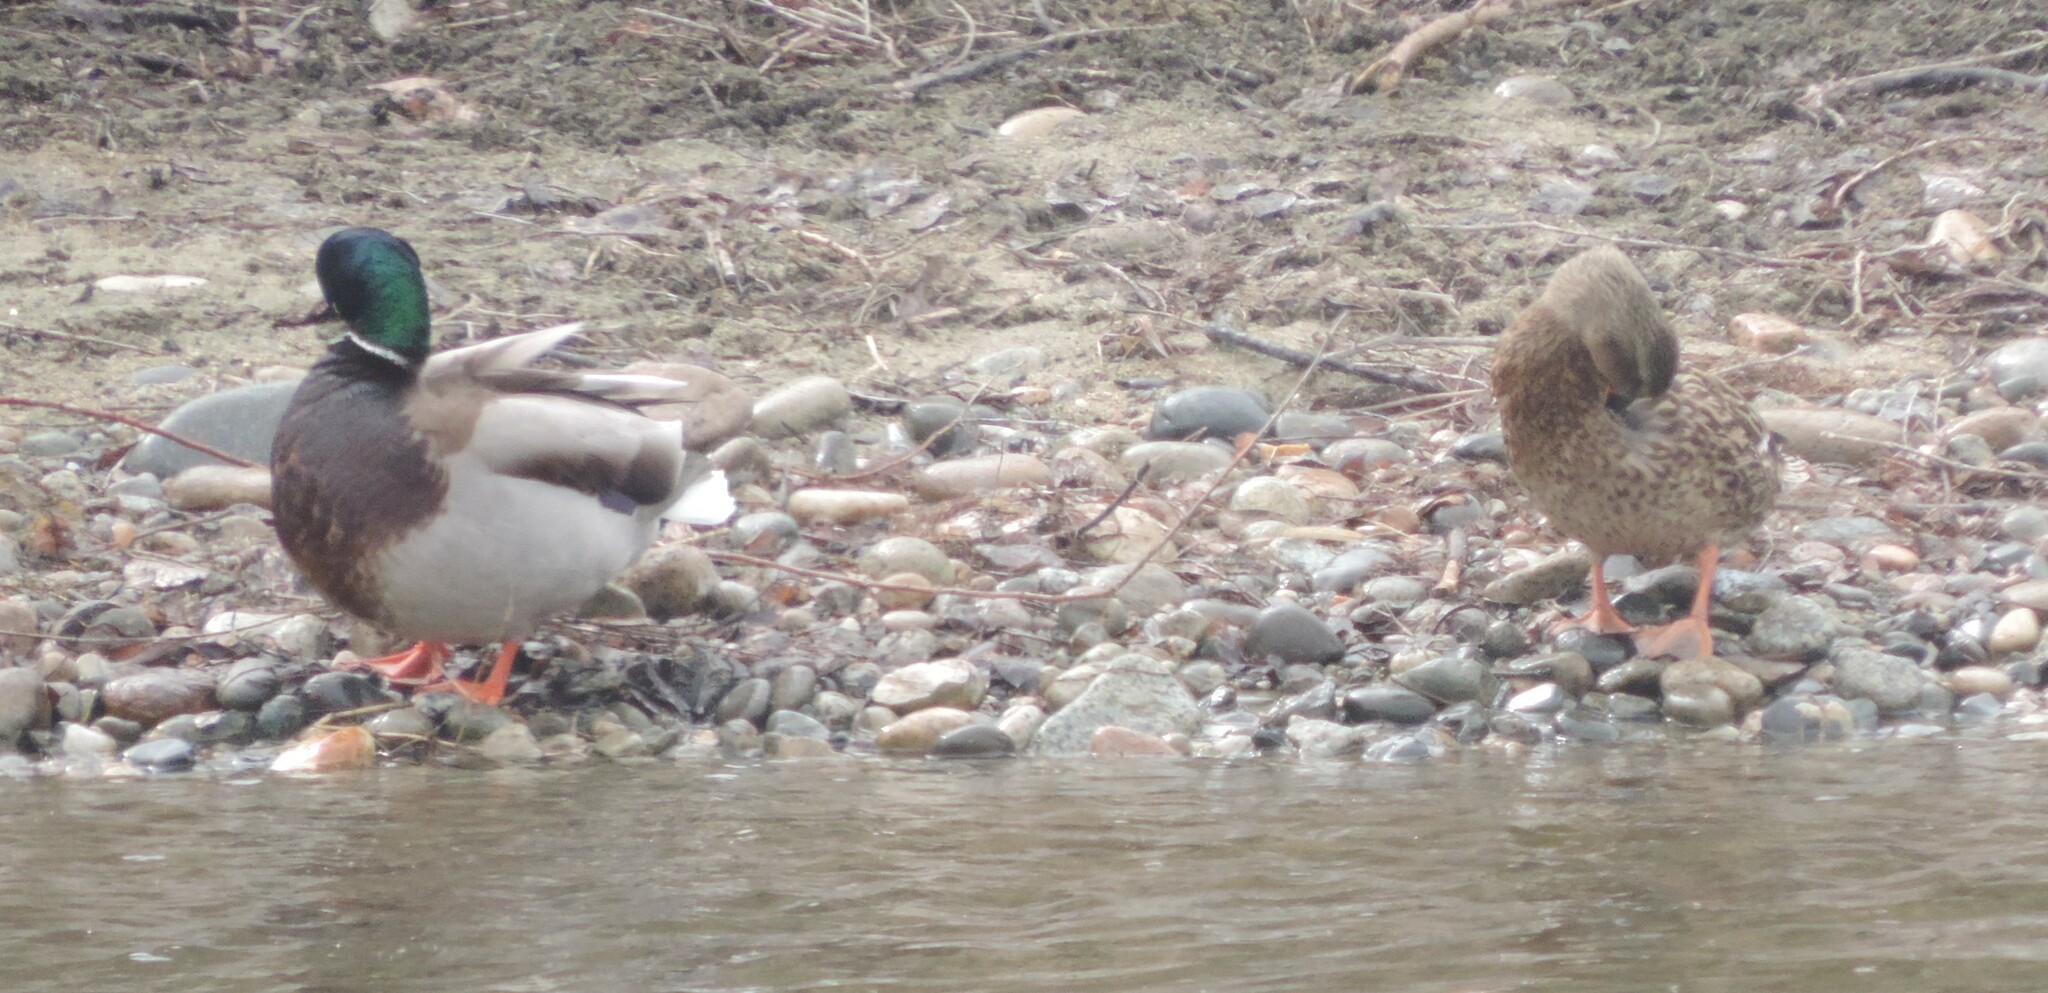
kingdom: Animalia
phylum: Chordata
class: Aves
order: Anseriformes
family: Anatidae
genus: Anas
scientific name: Anas platyrhynchos
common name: Mallard
